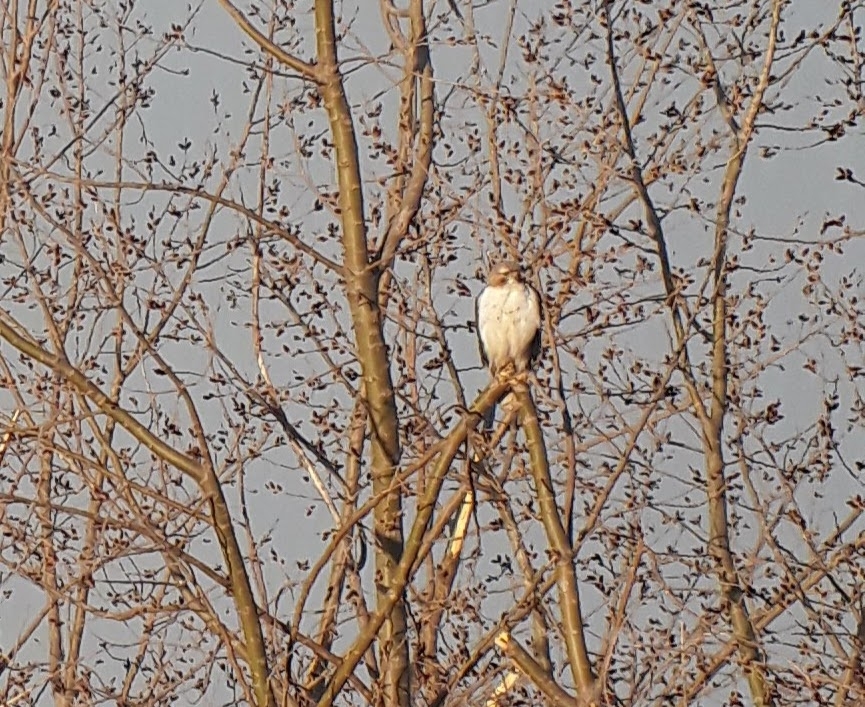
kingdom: Animalia
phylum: Chordata
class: Aves
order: Accipitriformes
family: Accipitridae
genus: Buteo
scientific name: Buteo jamaicensis
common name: Red-tailed hawk
